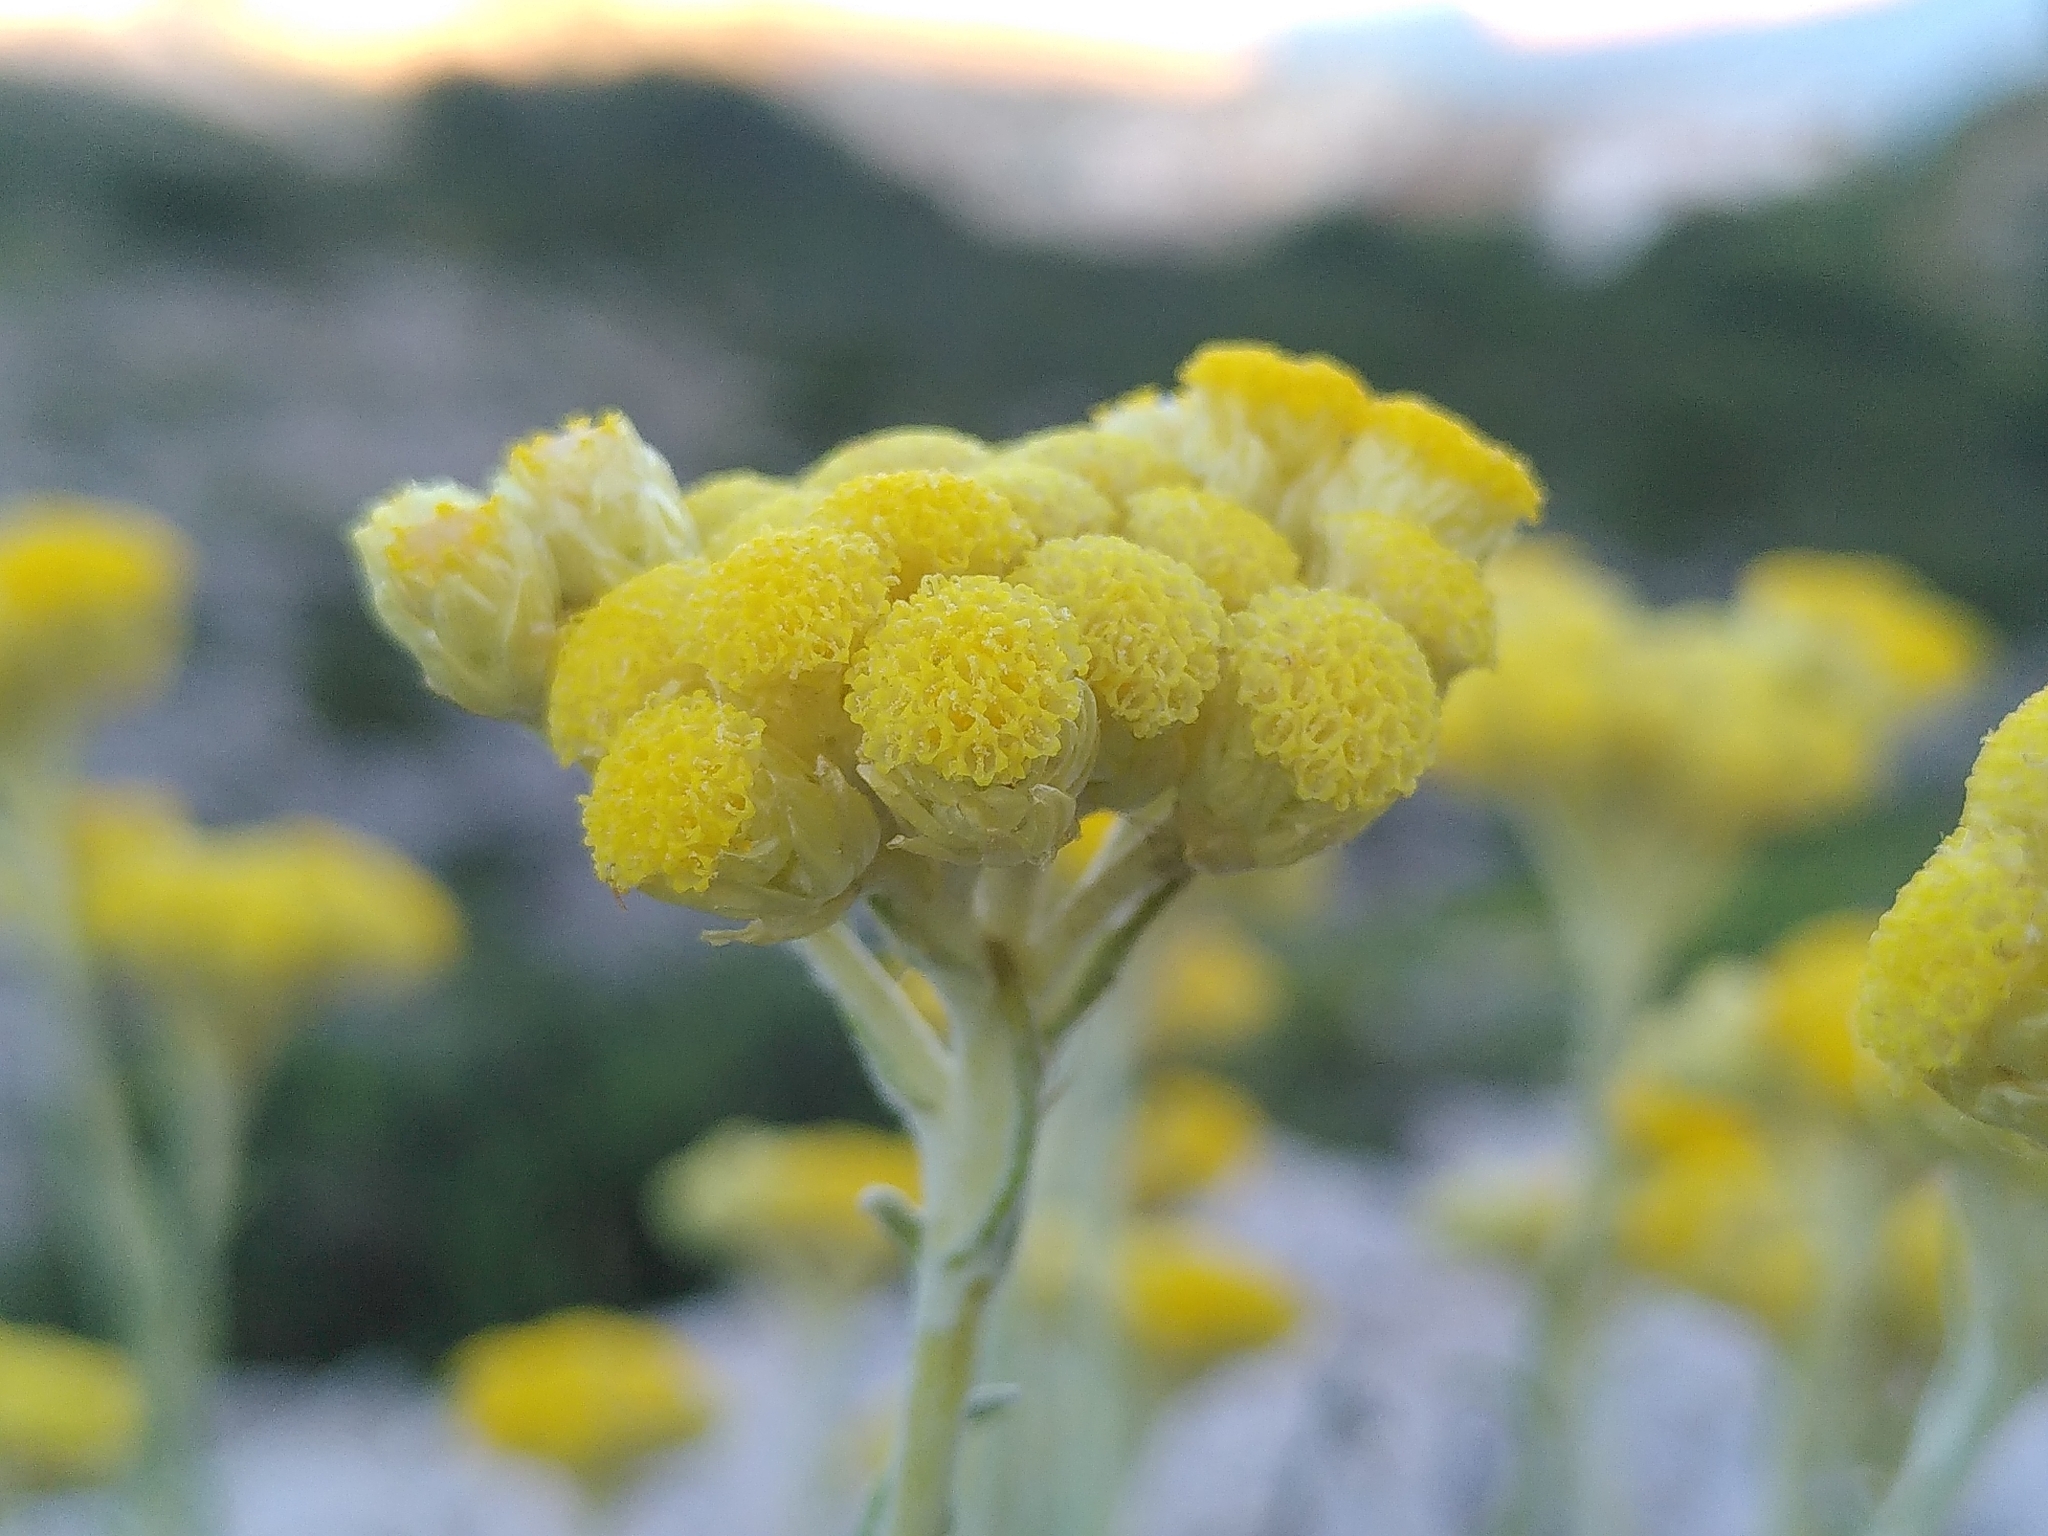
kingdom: Plantae
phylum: Tracheophyta
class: Magnoliopsida
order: Asterales
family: Asteraceae
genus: Helichrysum
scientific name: Helichrysum stoechas
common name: Goldilocks
